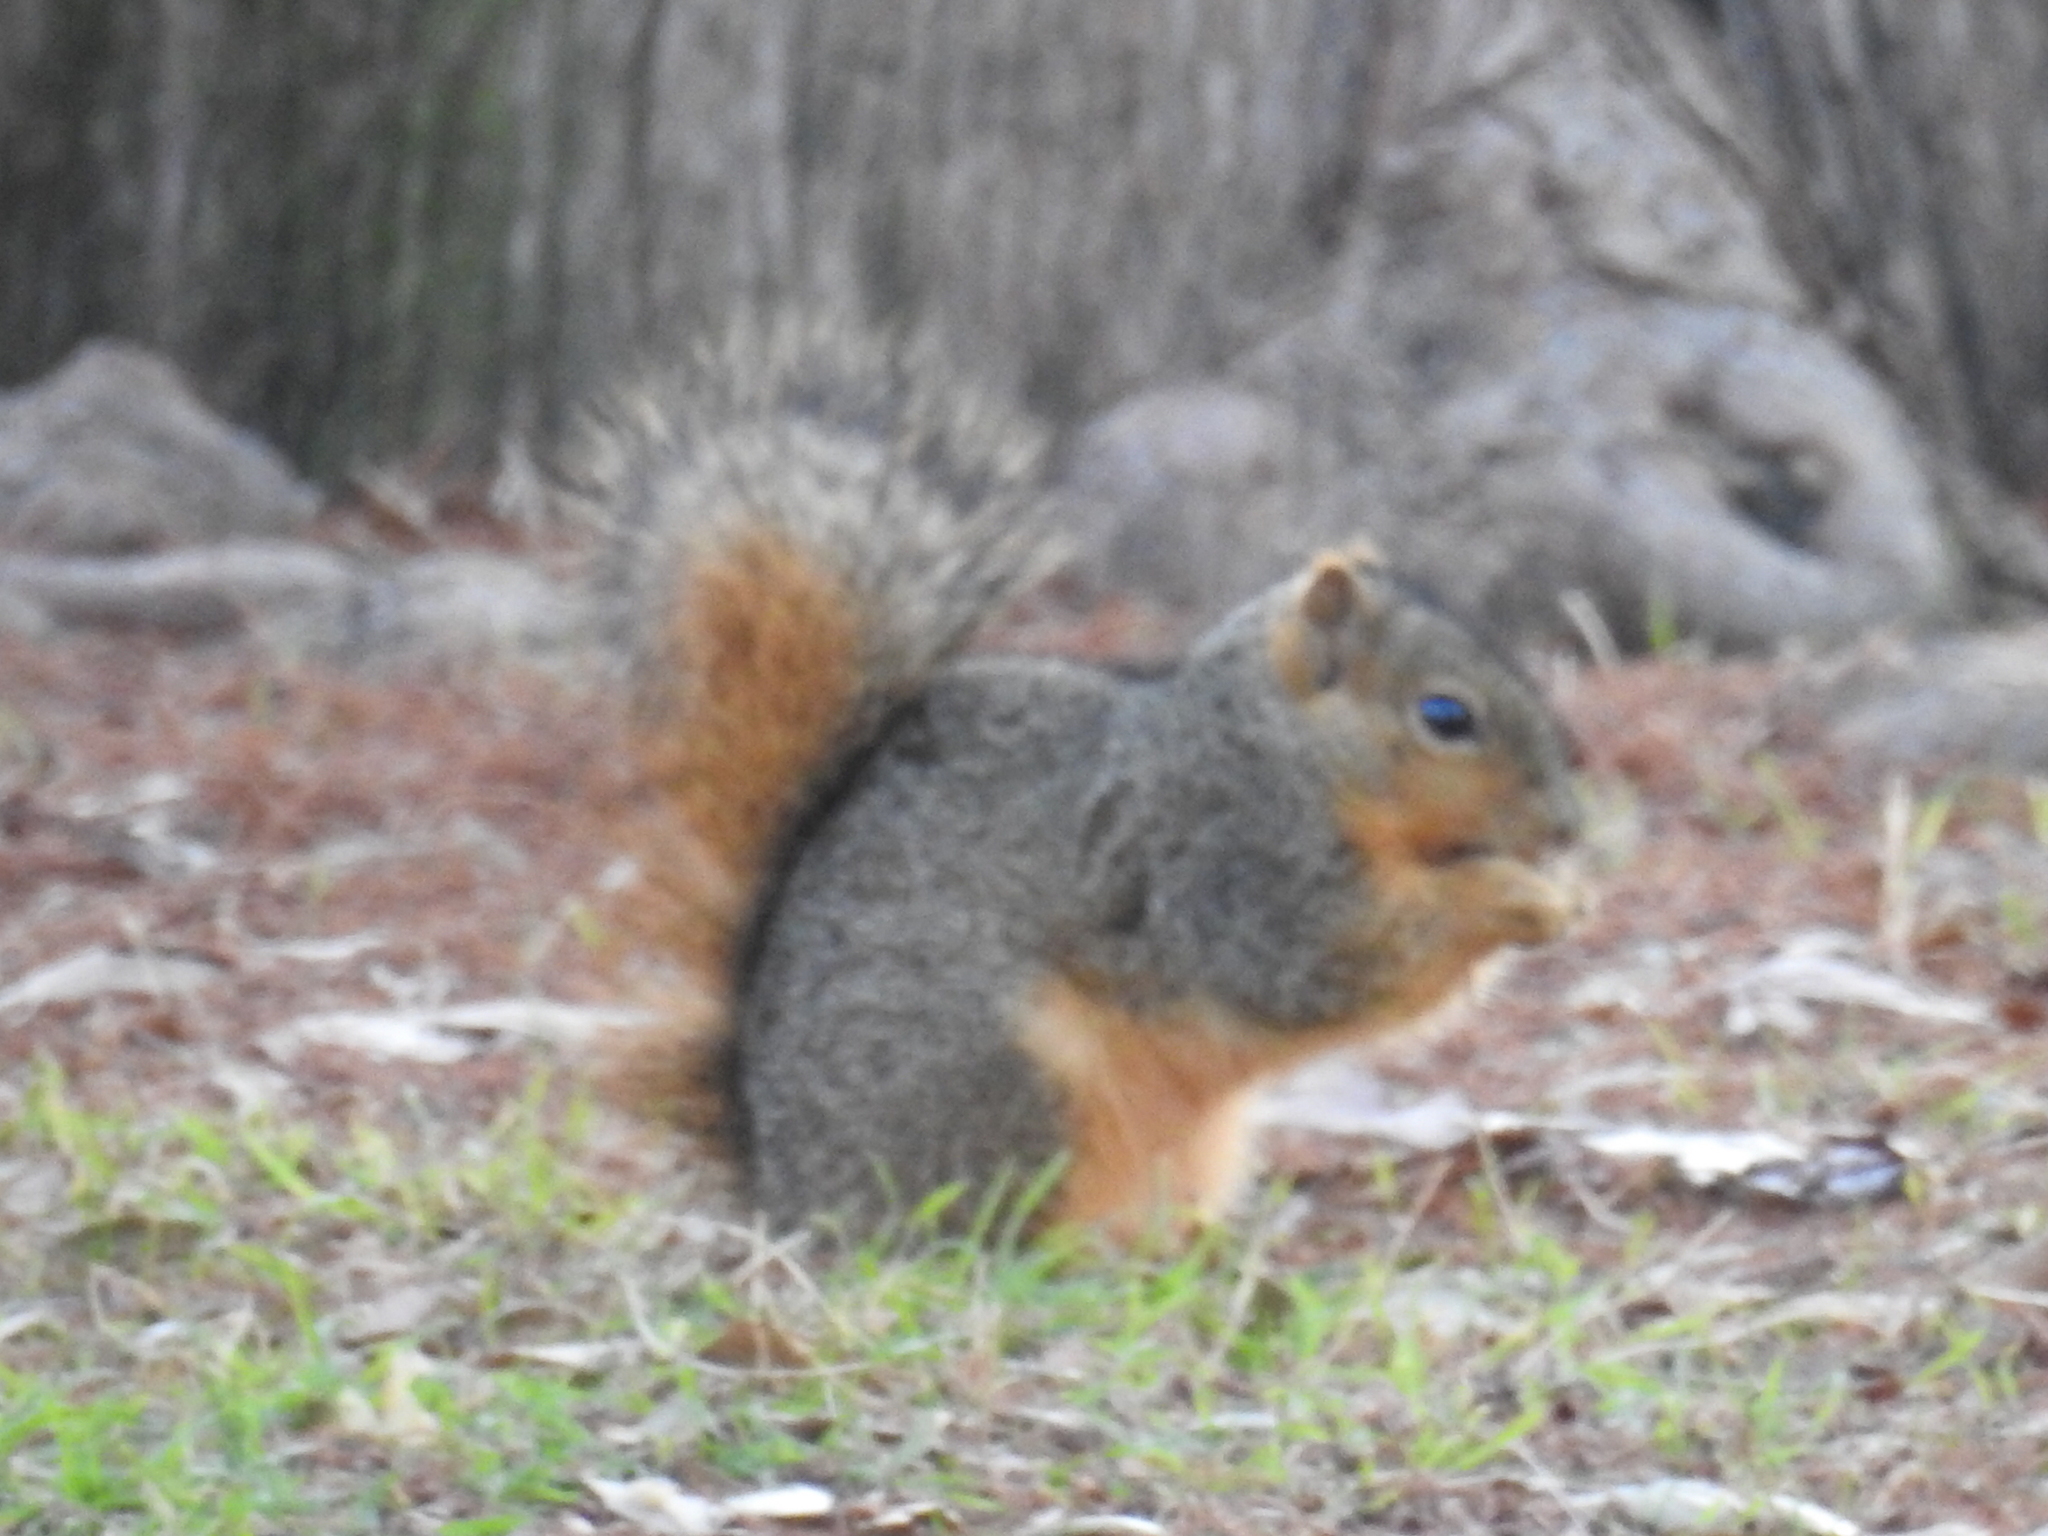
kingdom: Animalia
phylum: Chordata
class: Mammalia
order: Rodentia
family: Sciuridae
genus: Sciurus
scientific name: Sciurus niger
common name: Fox squirrel
